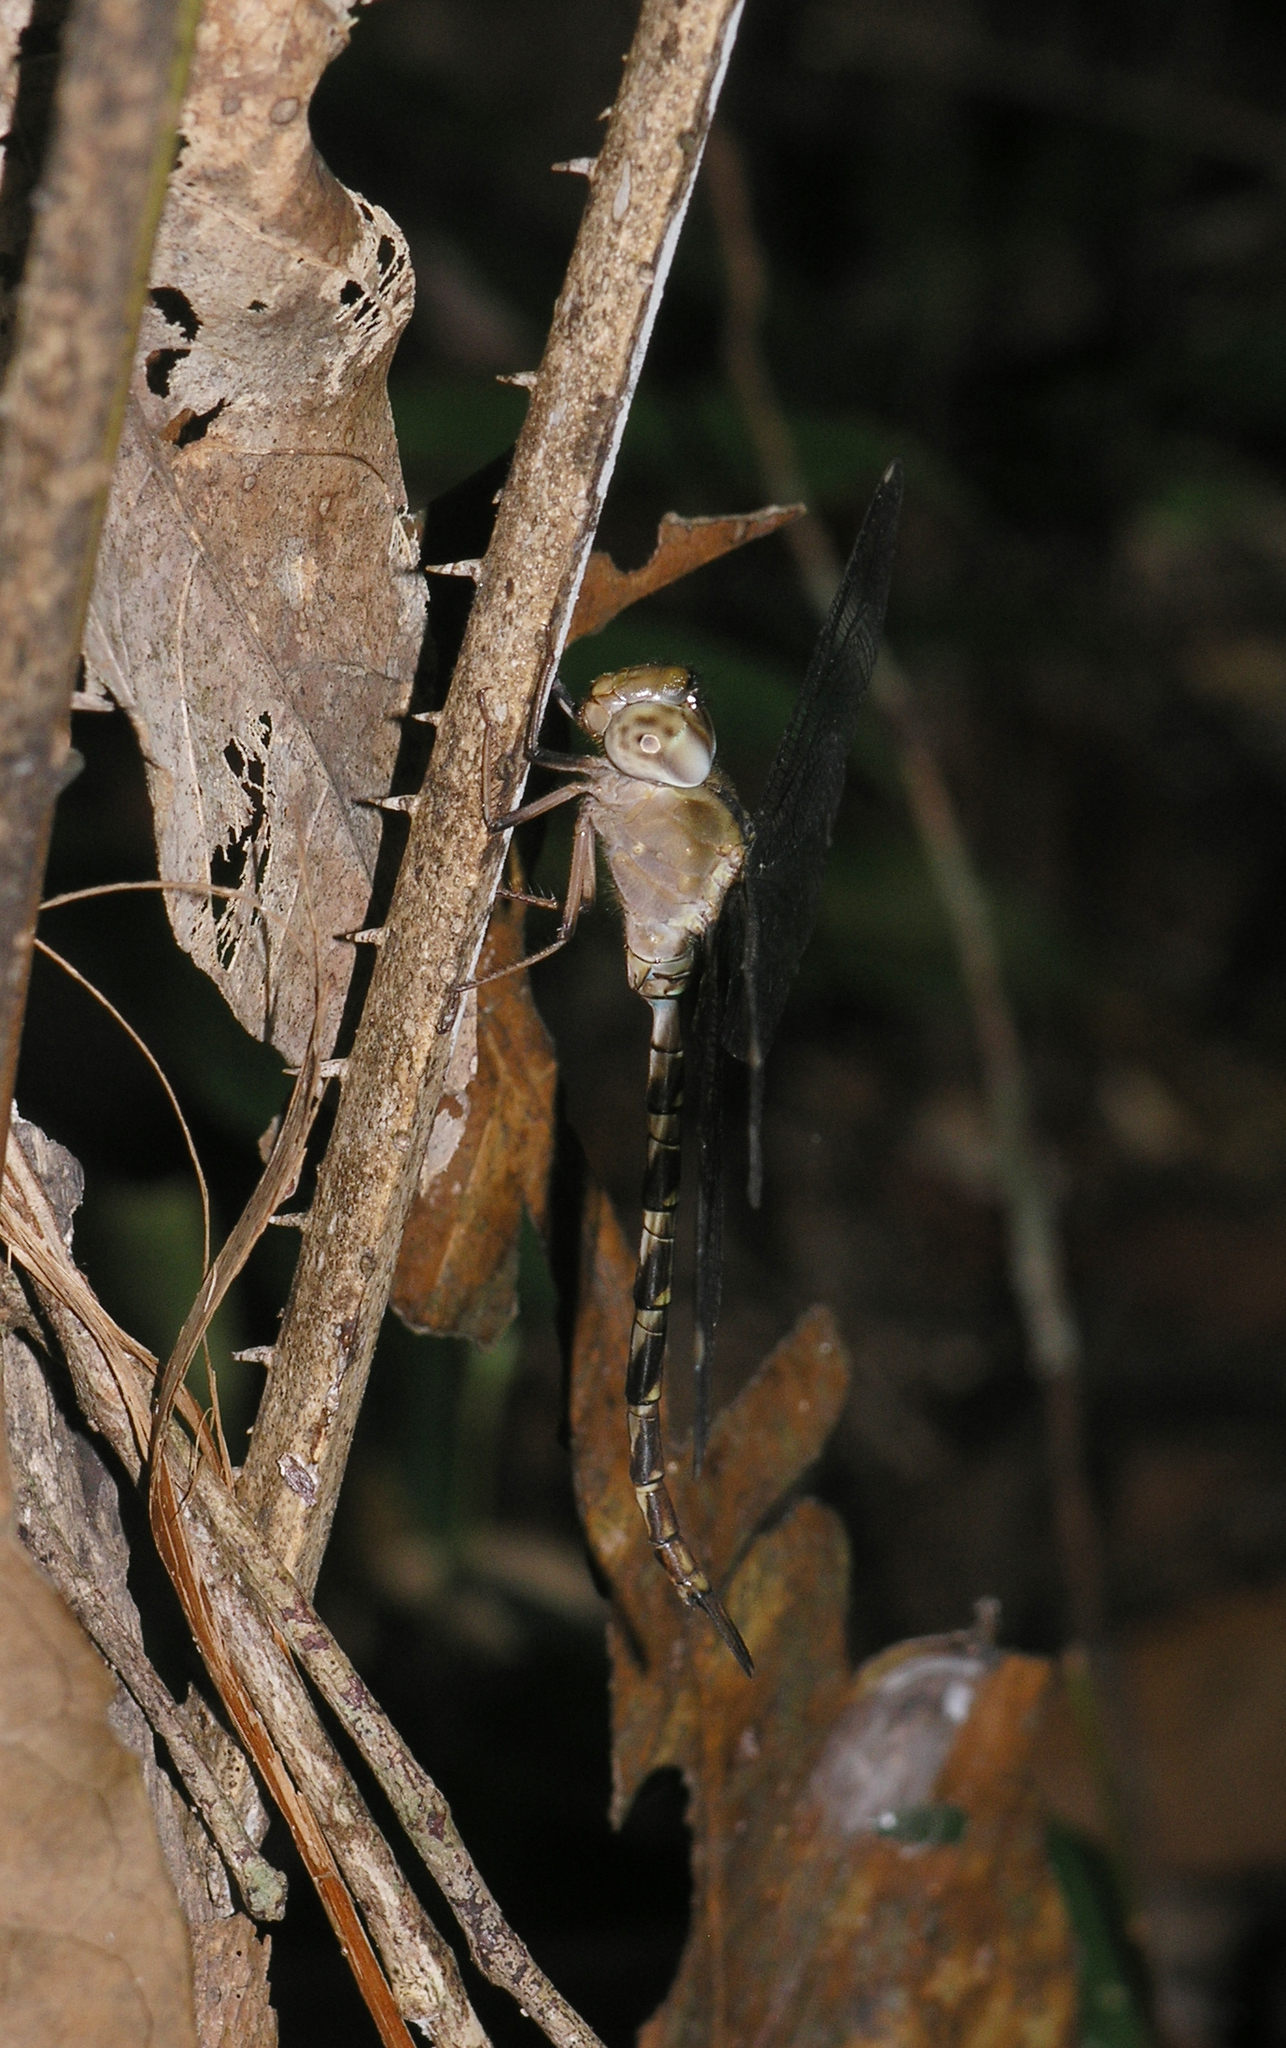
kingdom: Animalia
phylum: Arthropoda
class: Insecta
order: Odonata
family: Aeshnidae
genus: Gynacantha
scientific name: Gynacantha subinterrupta
